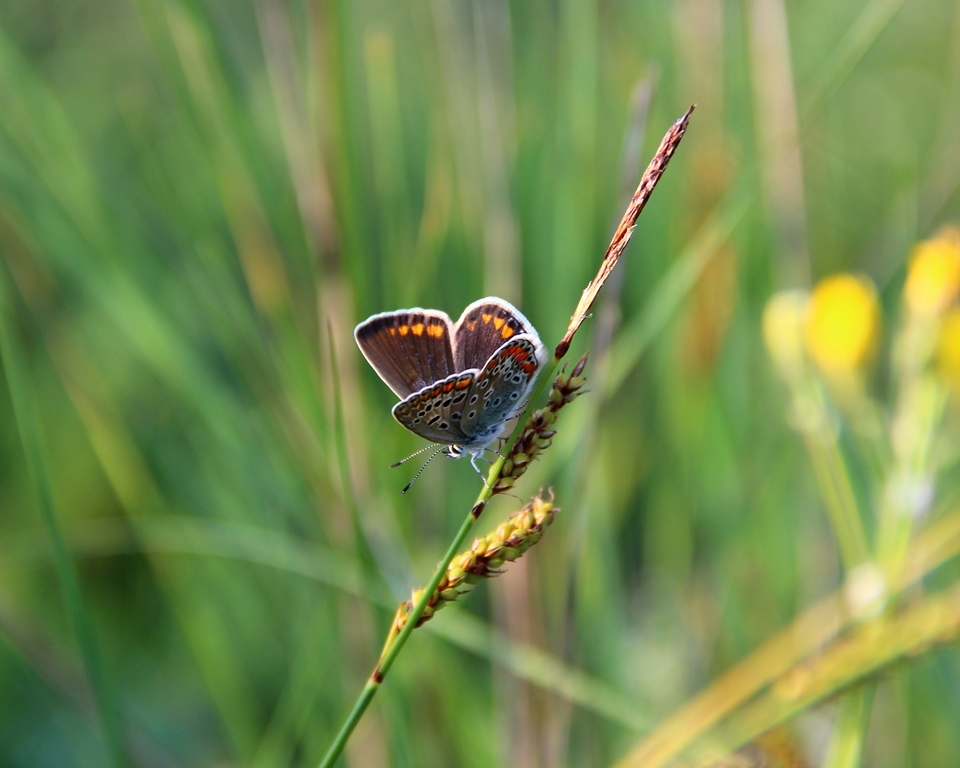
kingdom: Animalia
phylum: Arthropoda
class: Insecta
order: Lepidoptera
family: Lycaenidae
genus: Polyommatus
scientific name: Polyommatus icarus
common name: Common blue
